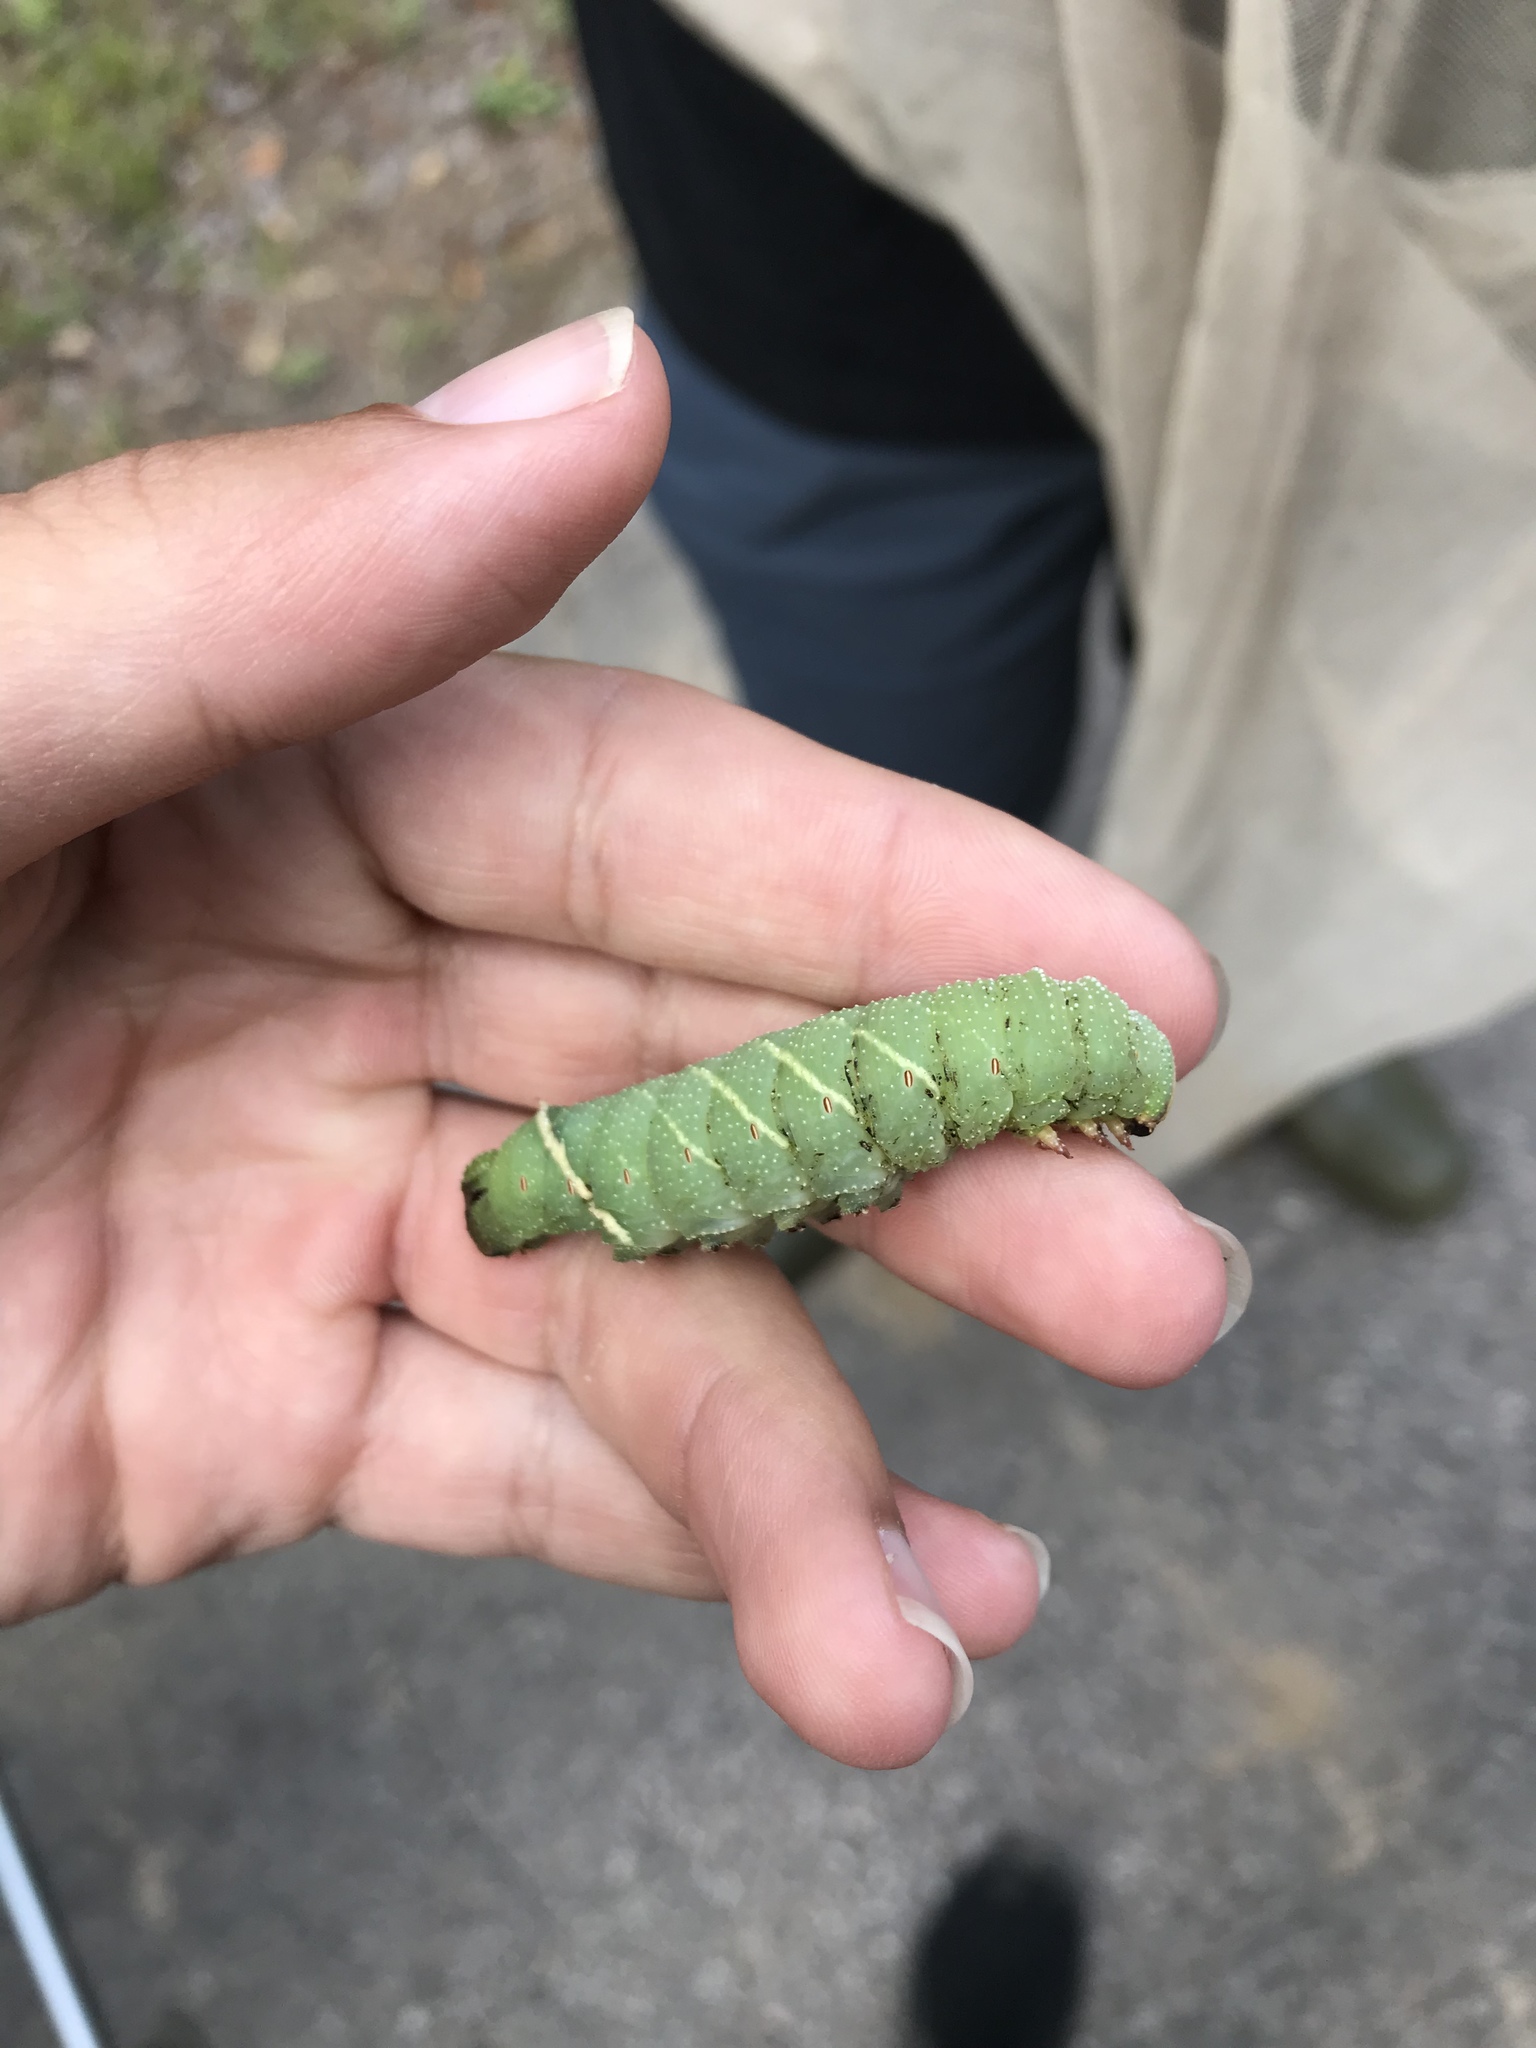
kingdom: Animalia
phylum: Arthropoda
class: Insecta
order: Lepidoptera
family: Sphingidae
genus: Pachysphinx
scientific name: Pachysphinx modesta
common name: Big poplar sphinx
